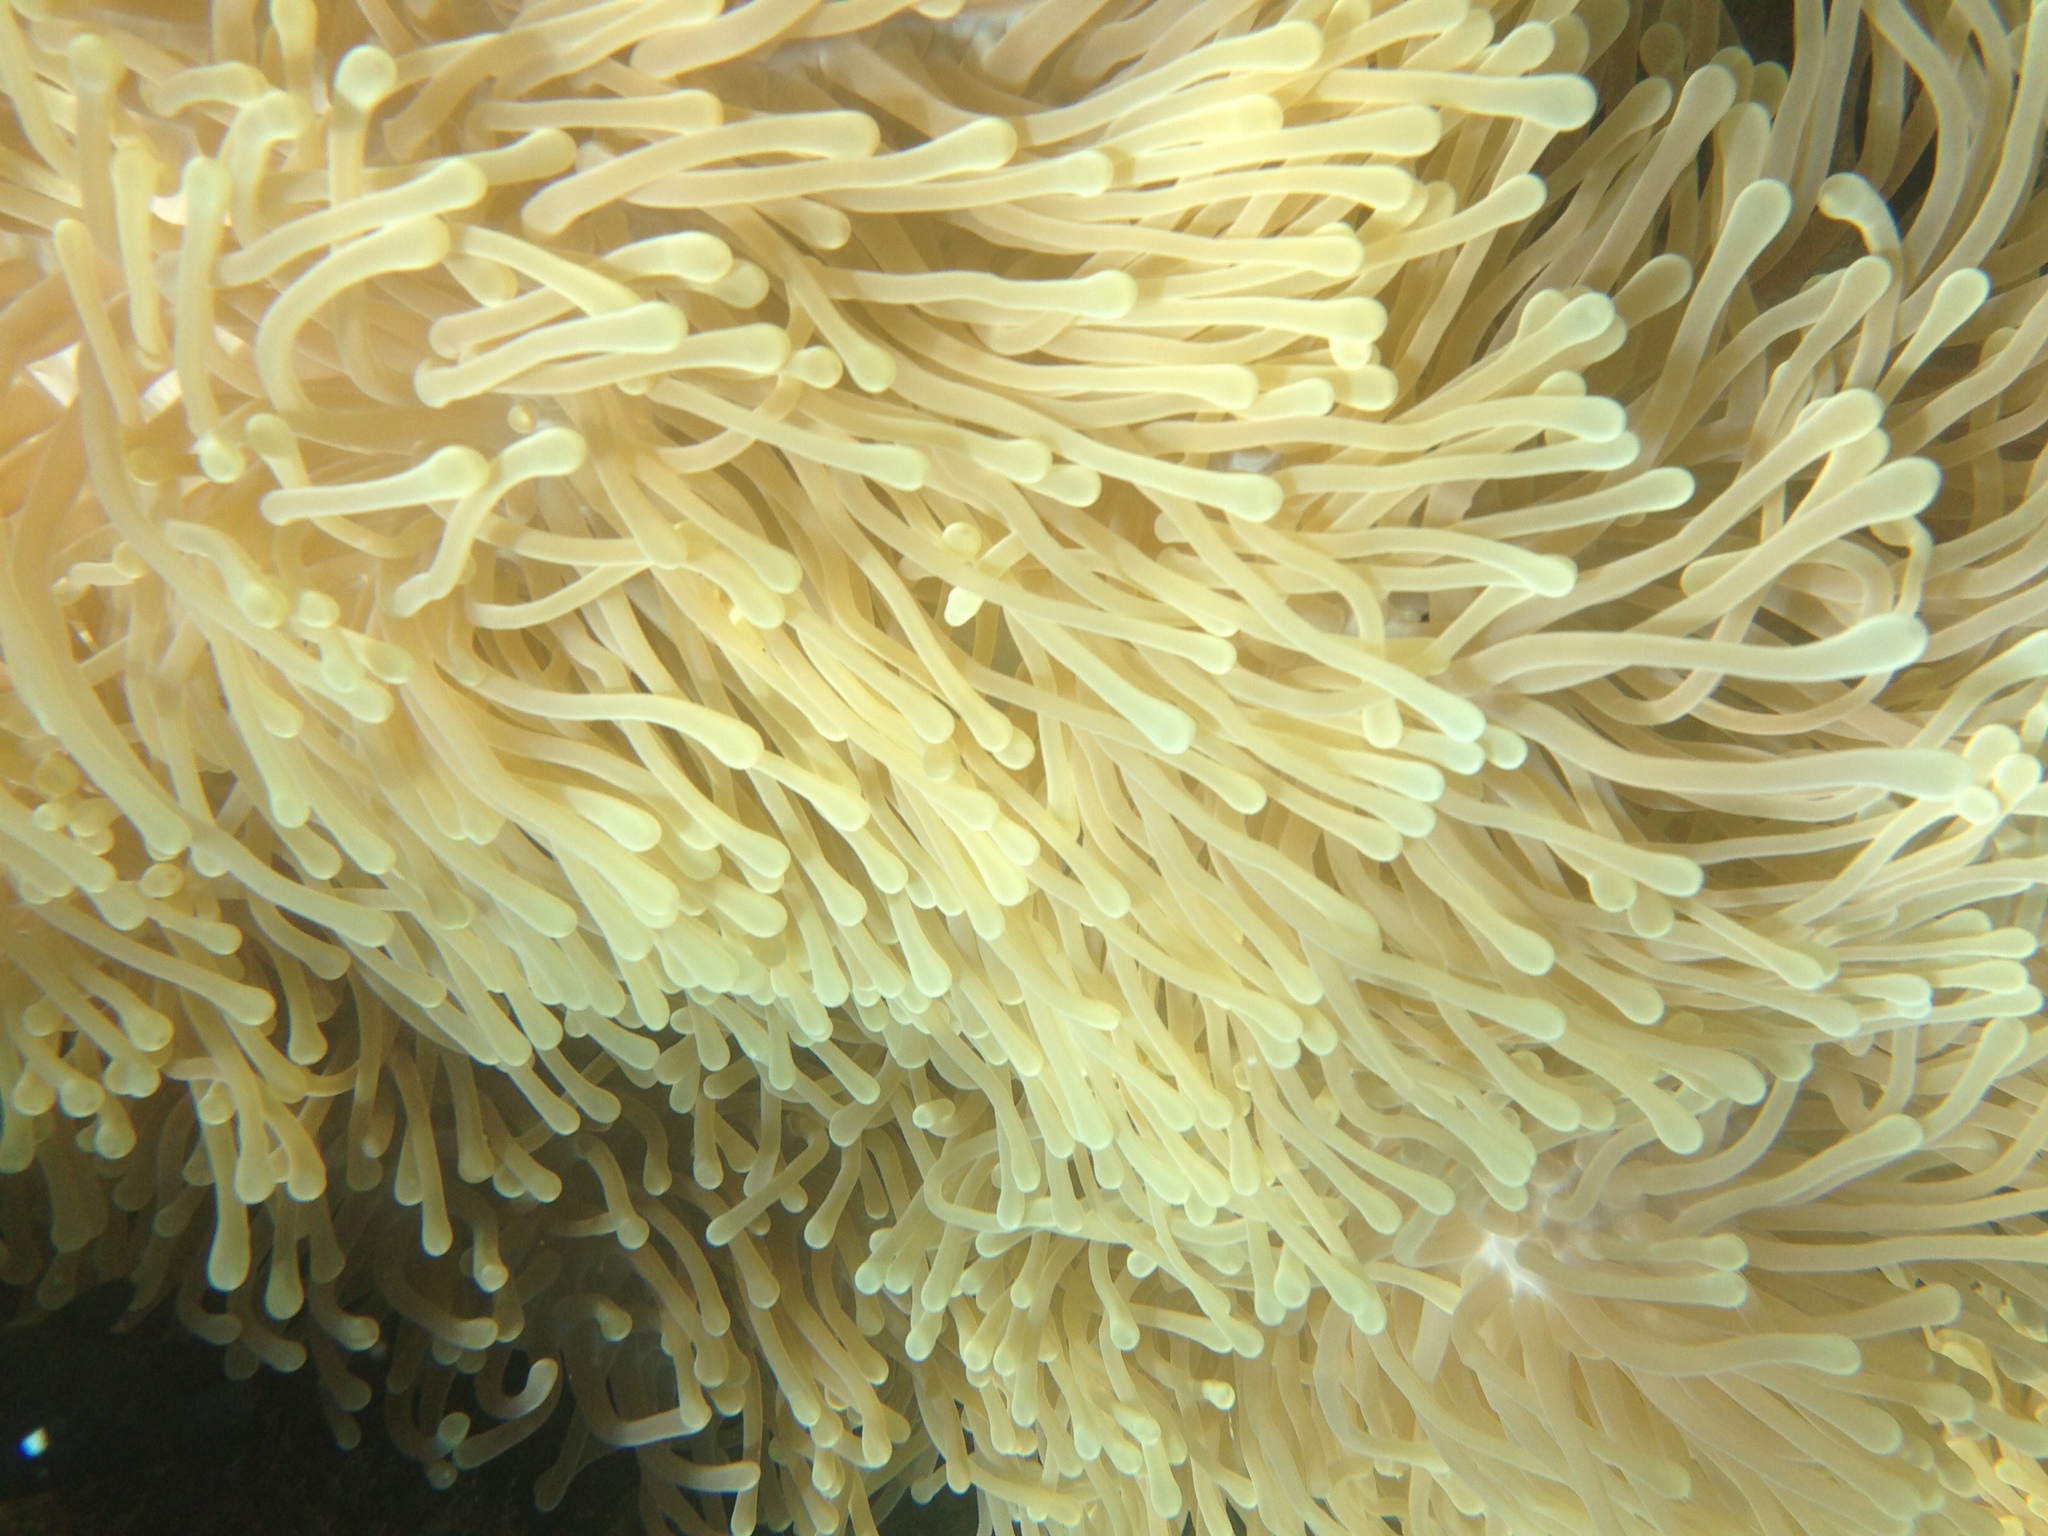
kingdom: Animalia
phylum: Cnidaria
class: Anthozoa
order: Actiniaria
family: Stichodactylidae
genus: Radianthus
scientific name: Radianthus magnifica
